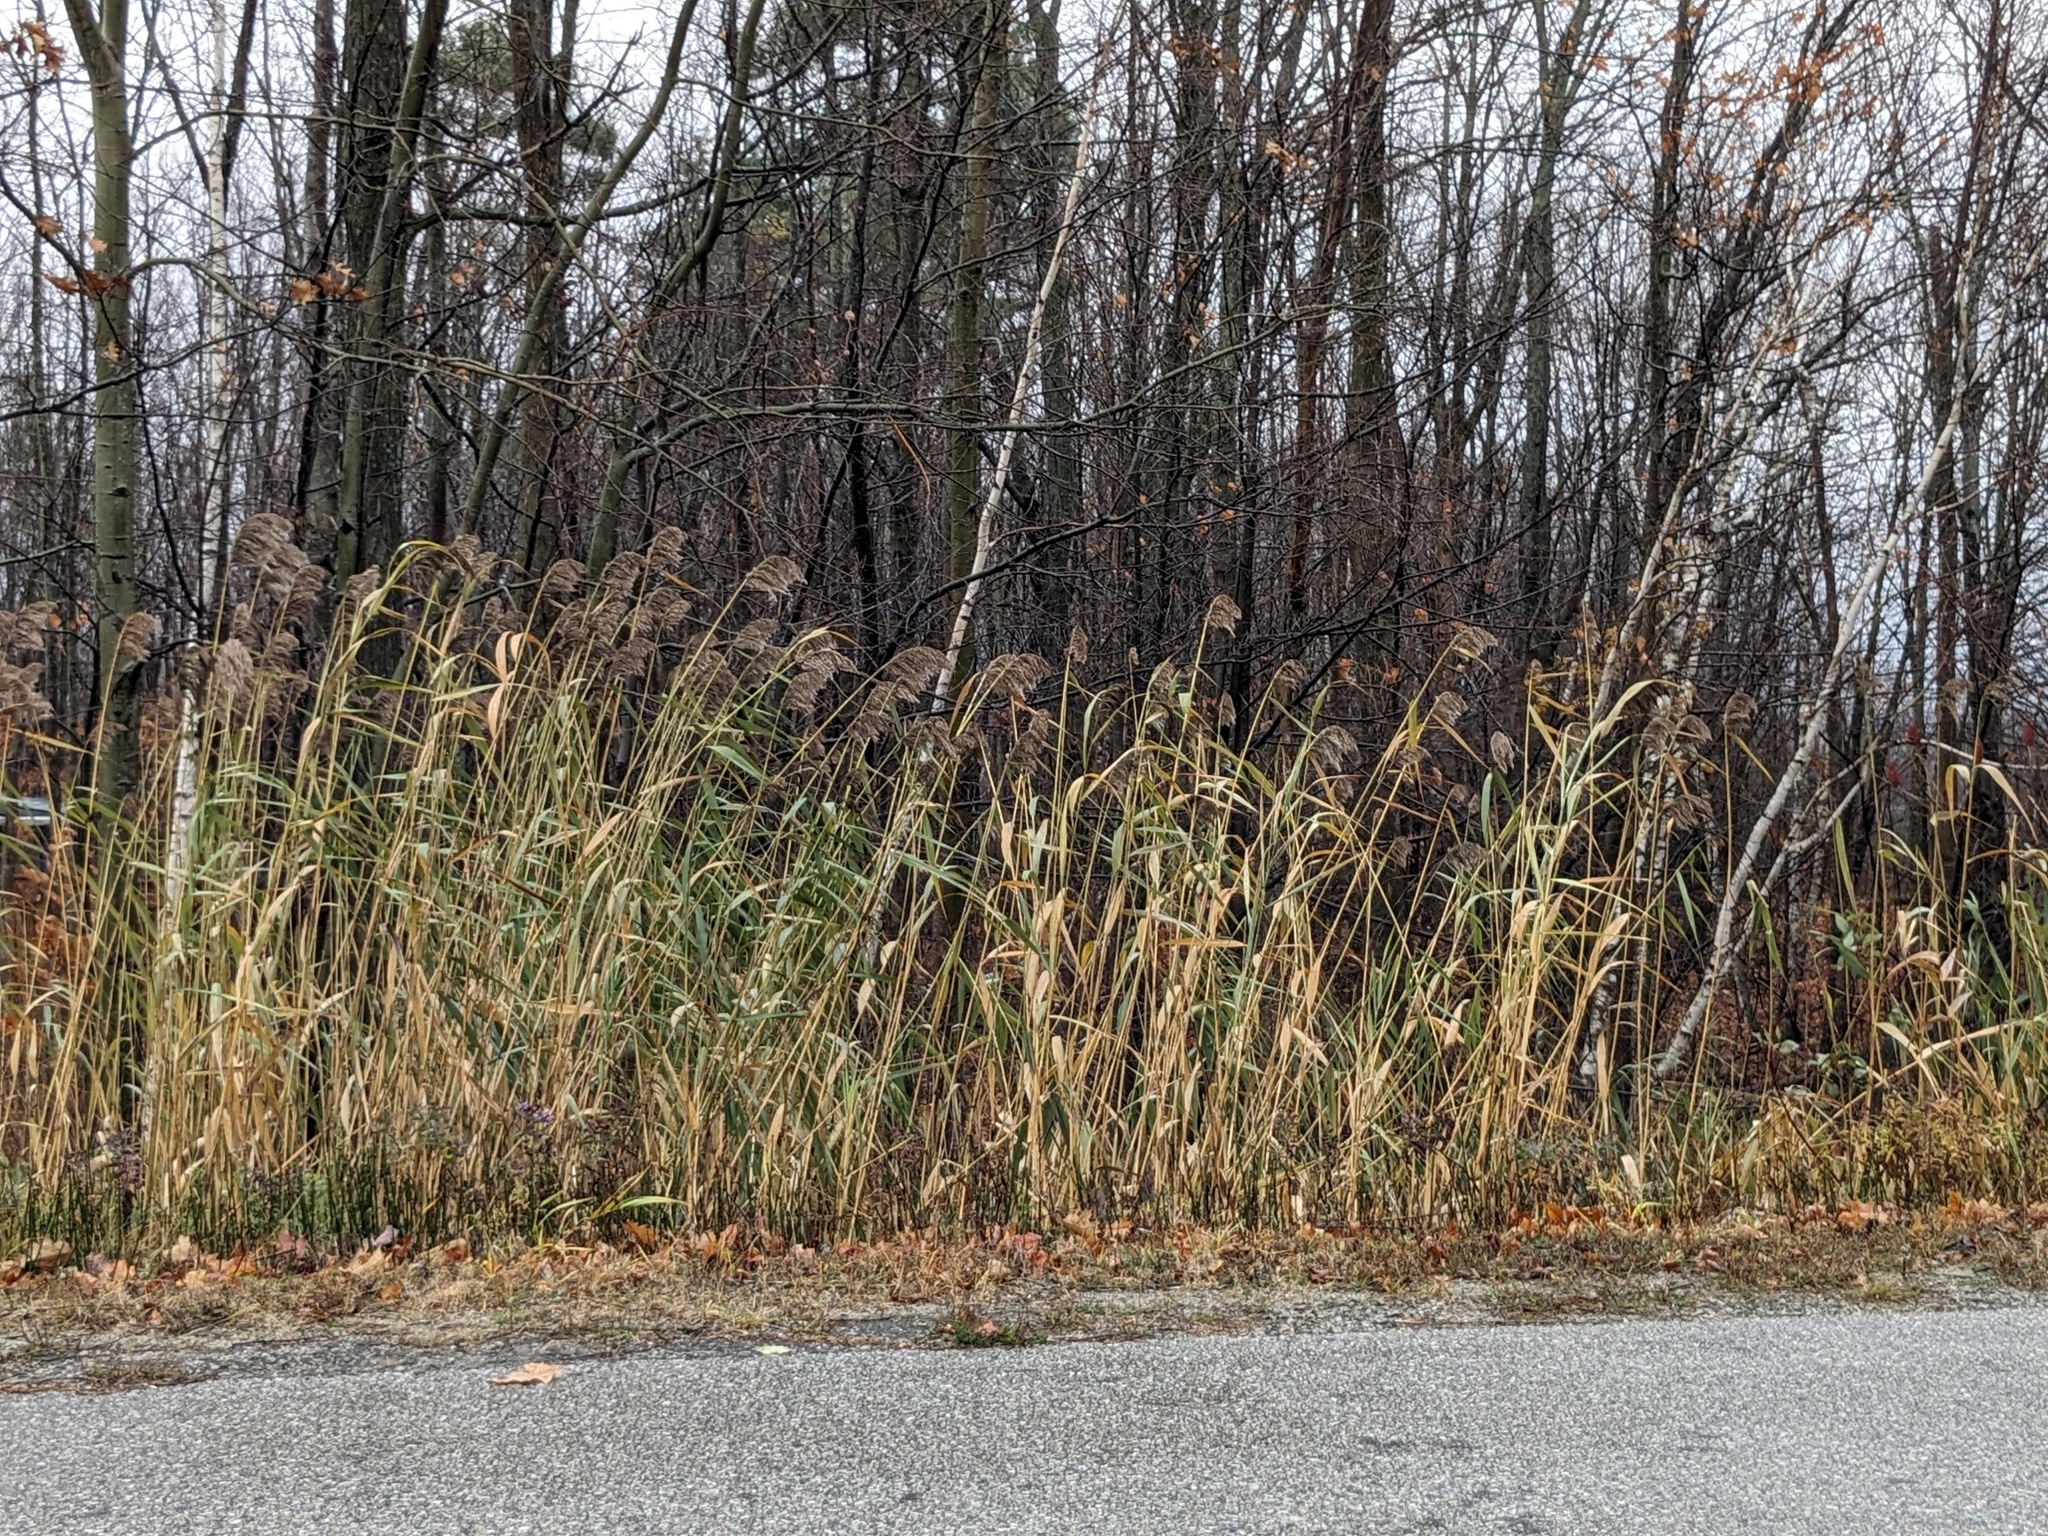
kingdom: Plantae
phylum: Tracheophyta
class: Liliopsida
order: Poales
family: Poaceae
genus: Phragmites
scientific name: Phragmites australis
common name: Common reed
